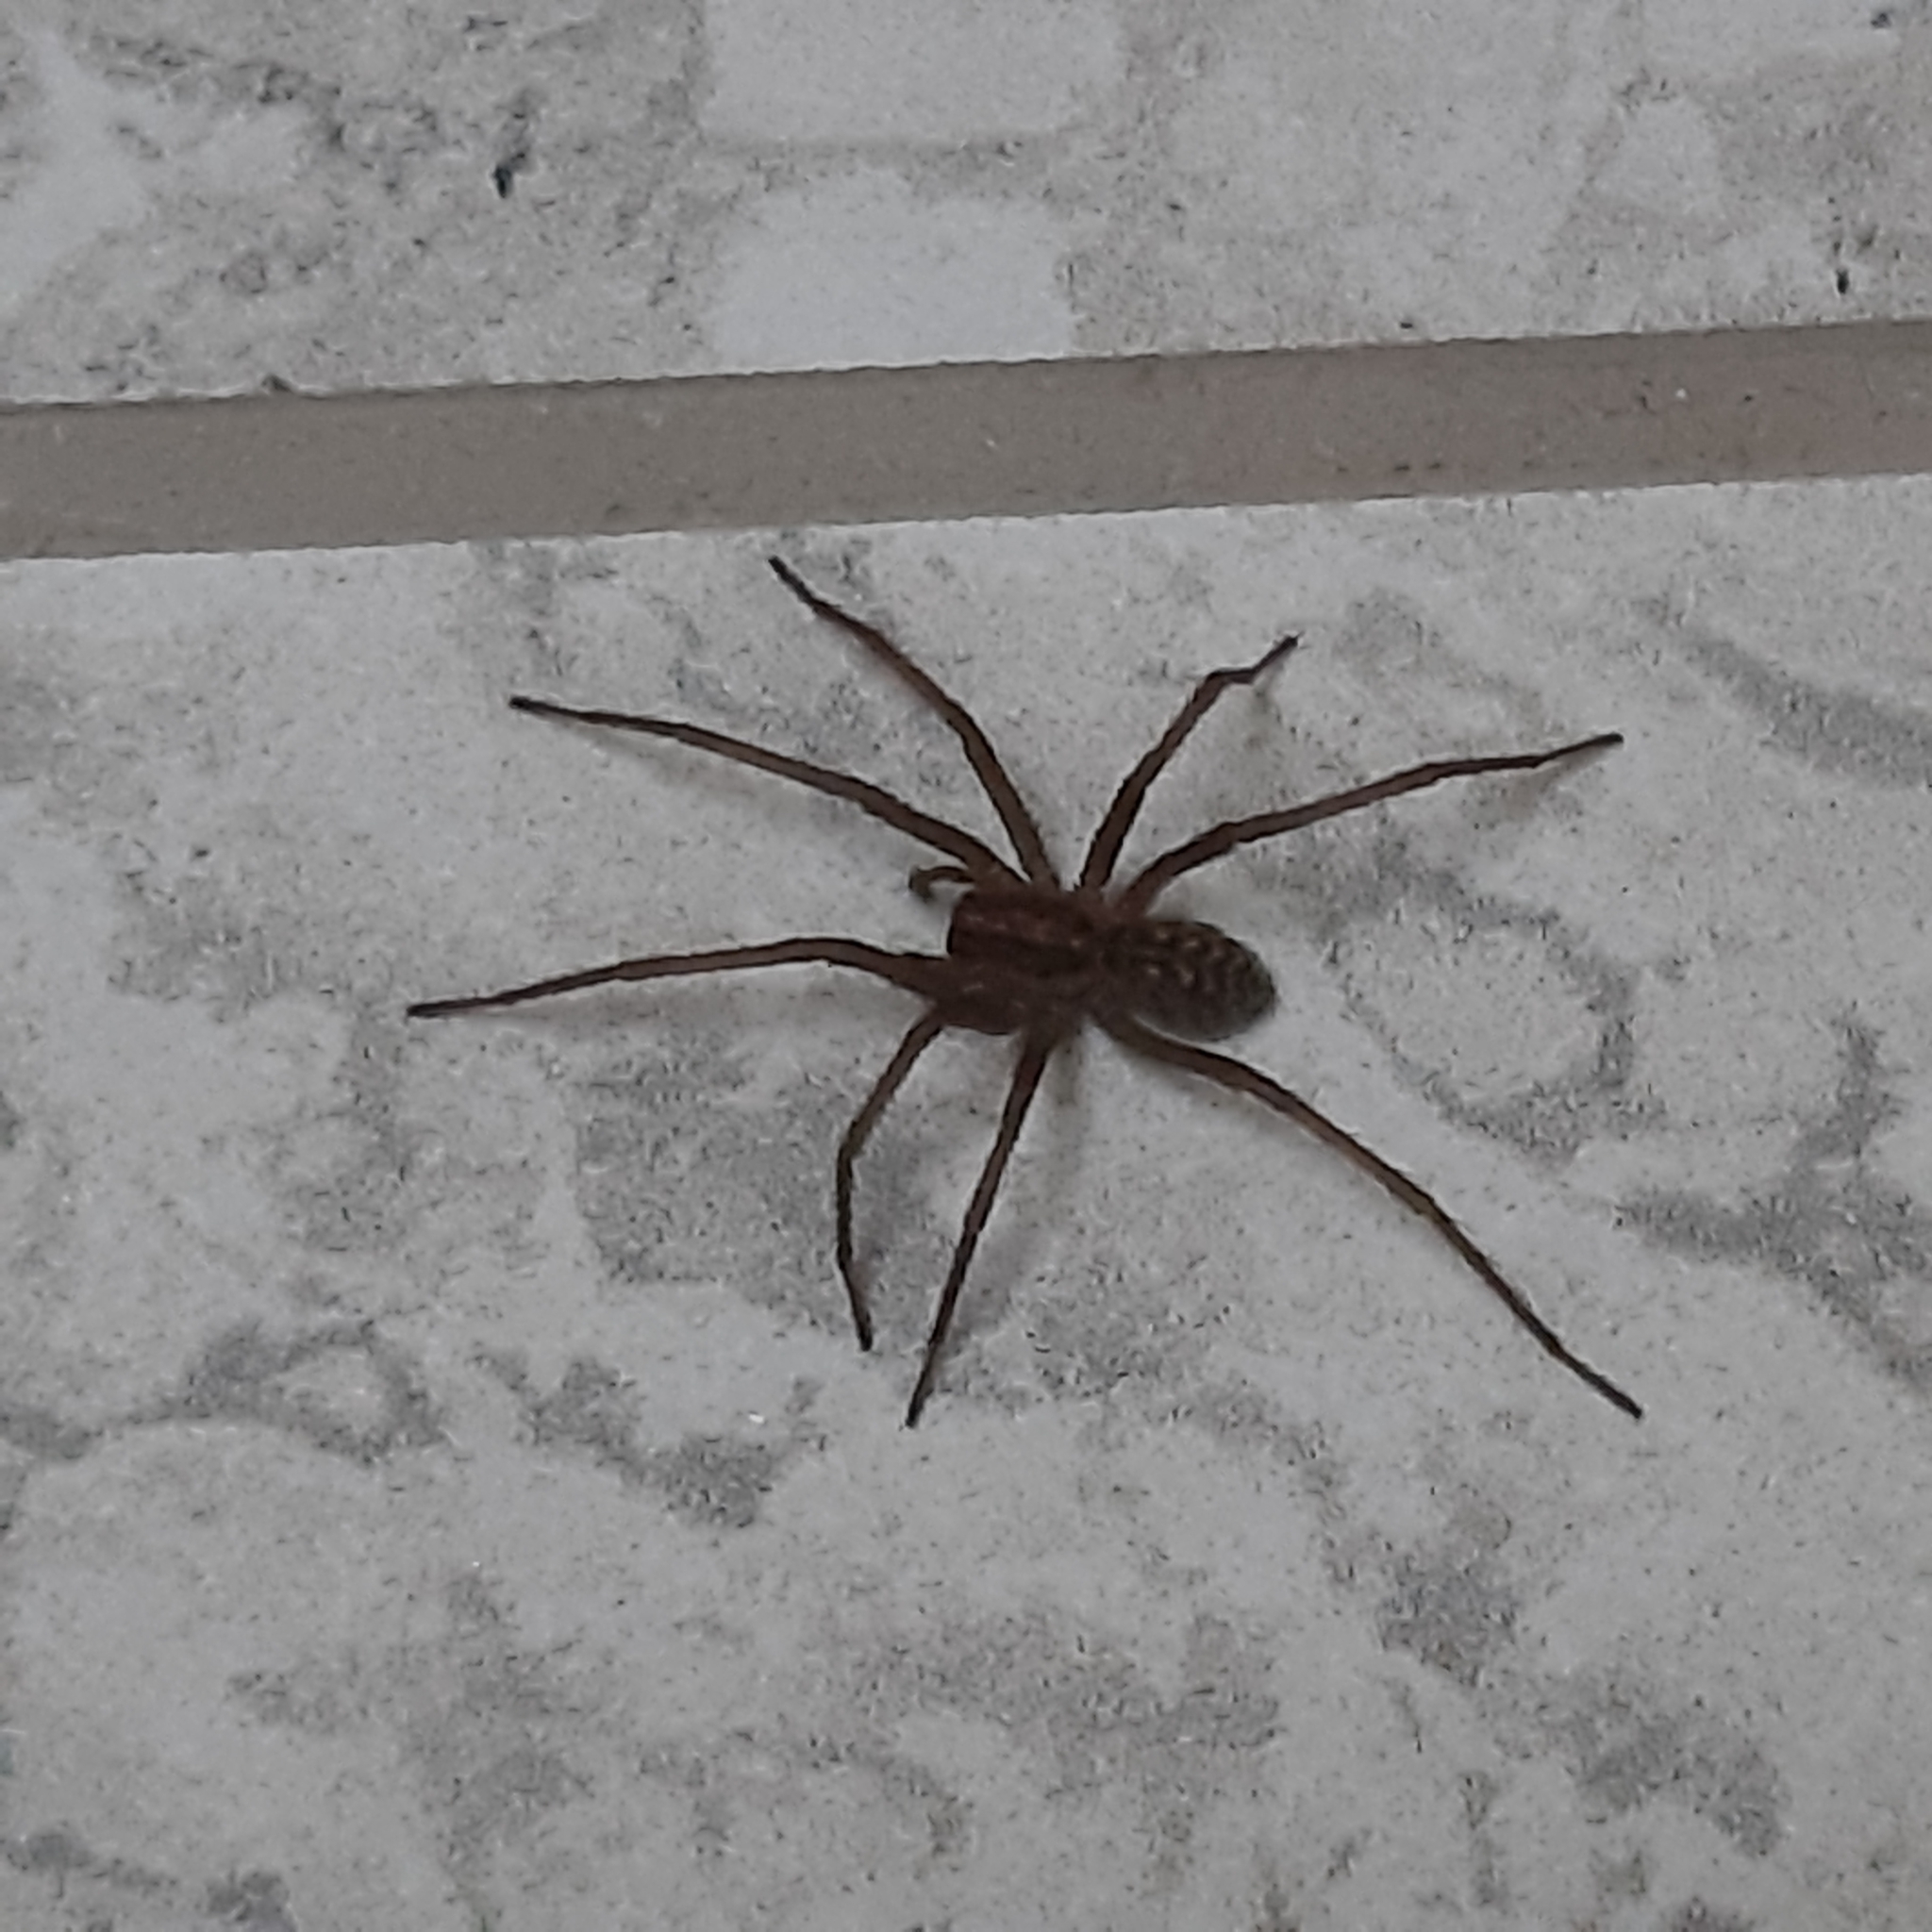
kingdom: Animalia
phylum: Arthropoda
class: Arachnida
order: Araneae
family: Agelenidae
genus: Eratigena
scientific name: Eratigena atrica
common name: Giant house spider
